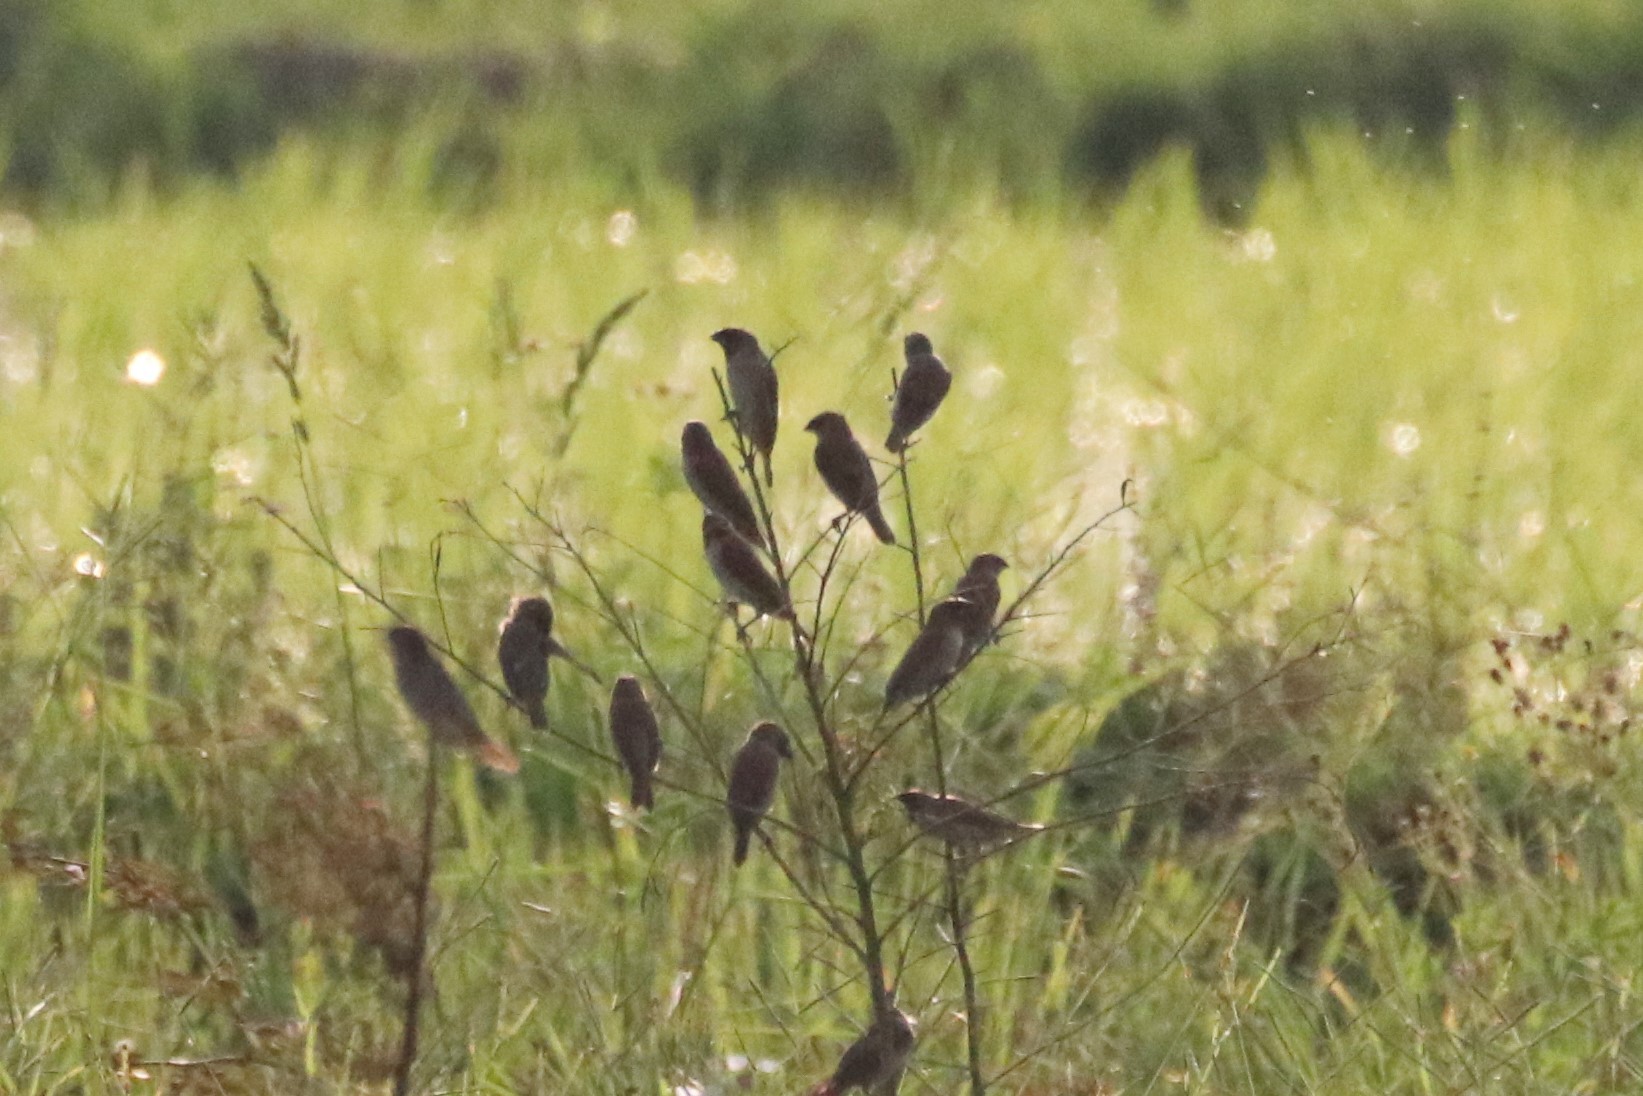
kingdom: Animalia
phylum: Chordata
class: Aves
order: Passeriformes
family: Estrildidae
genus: Lonchura
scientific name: Lonchura punctulata
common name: Scaly-breasted munia
